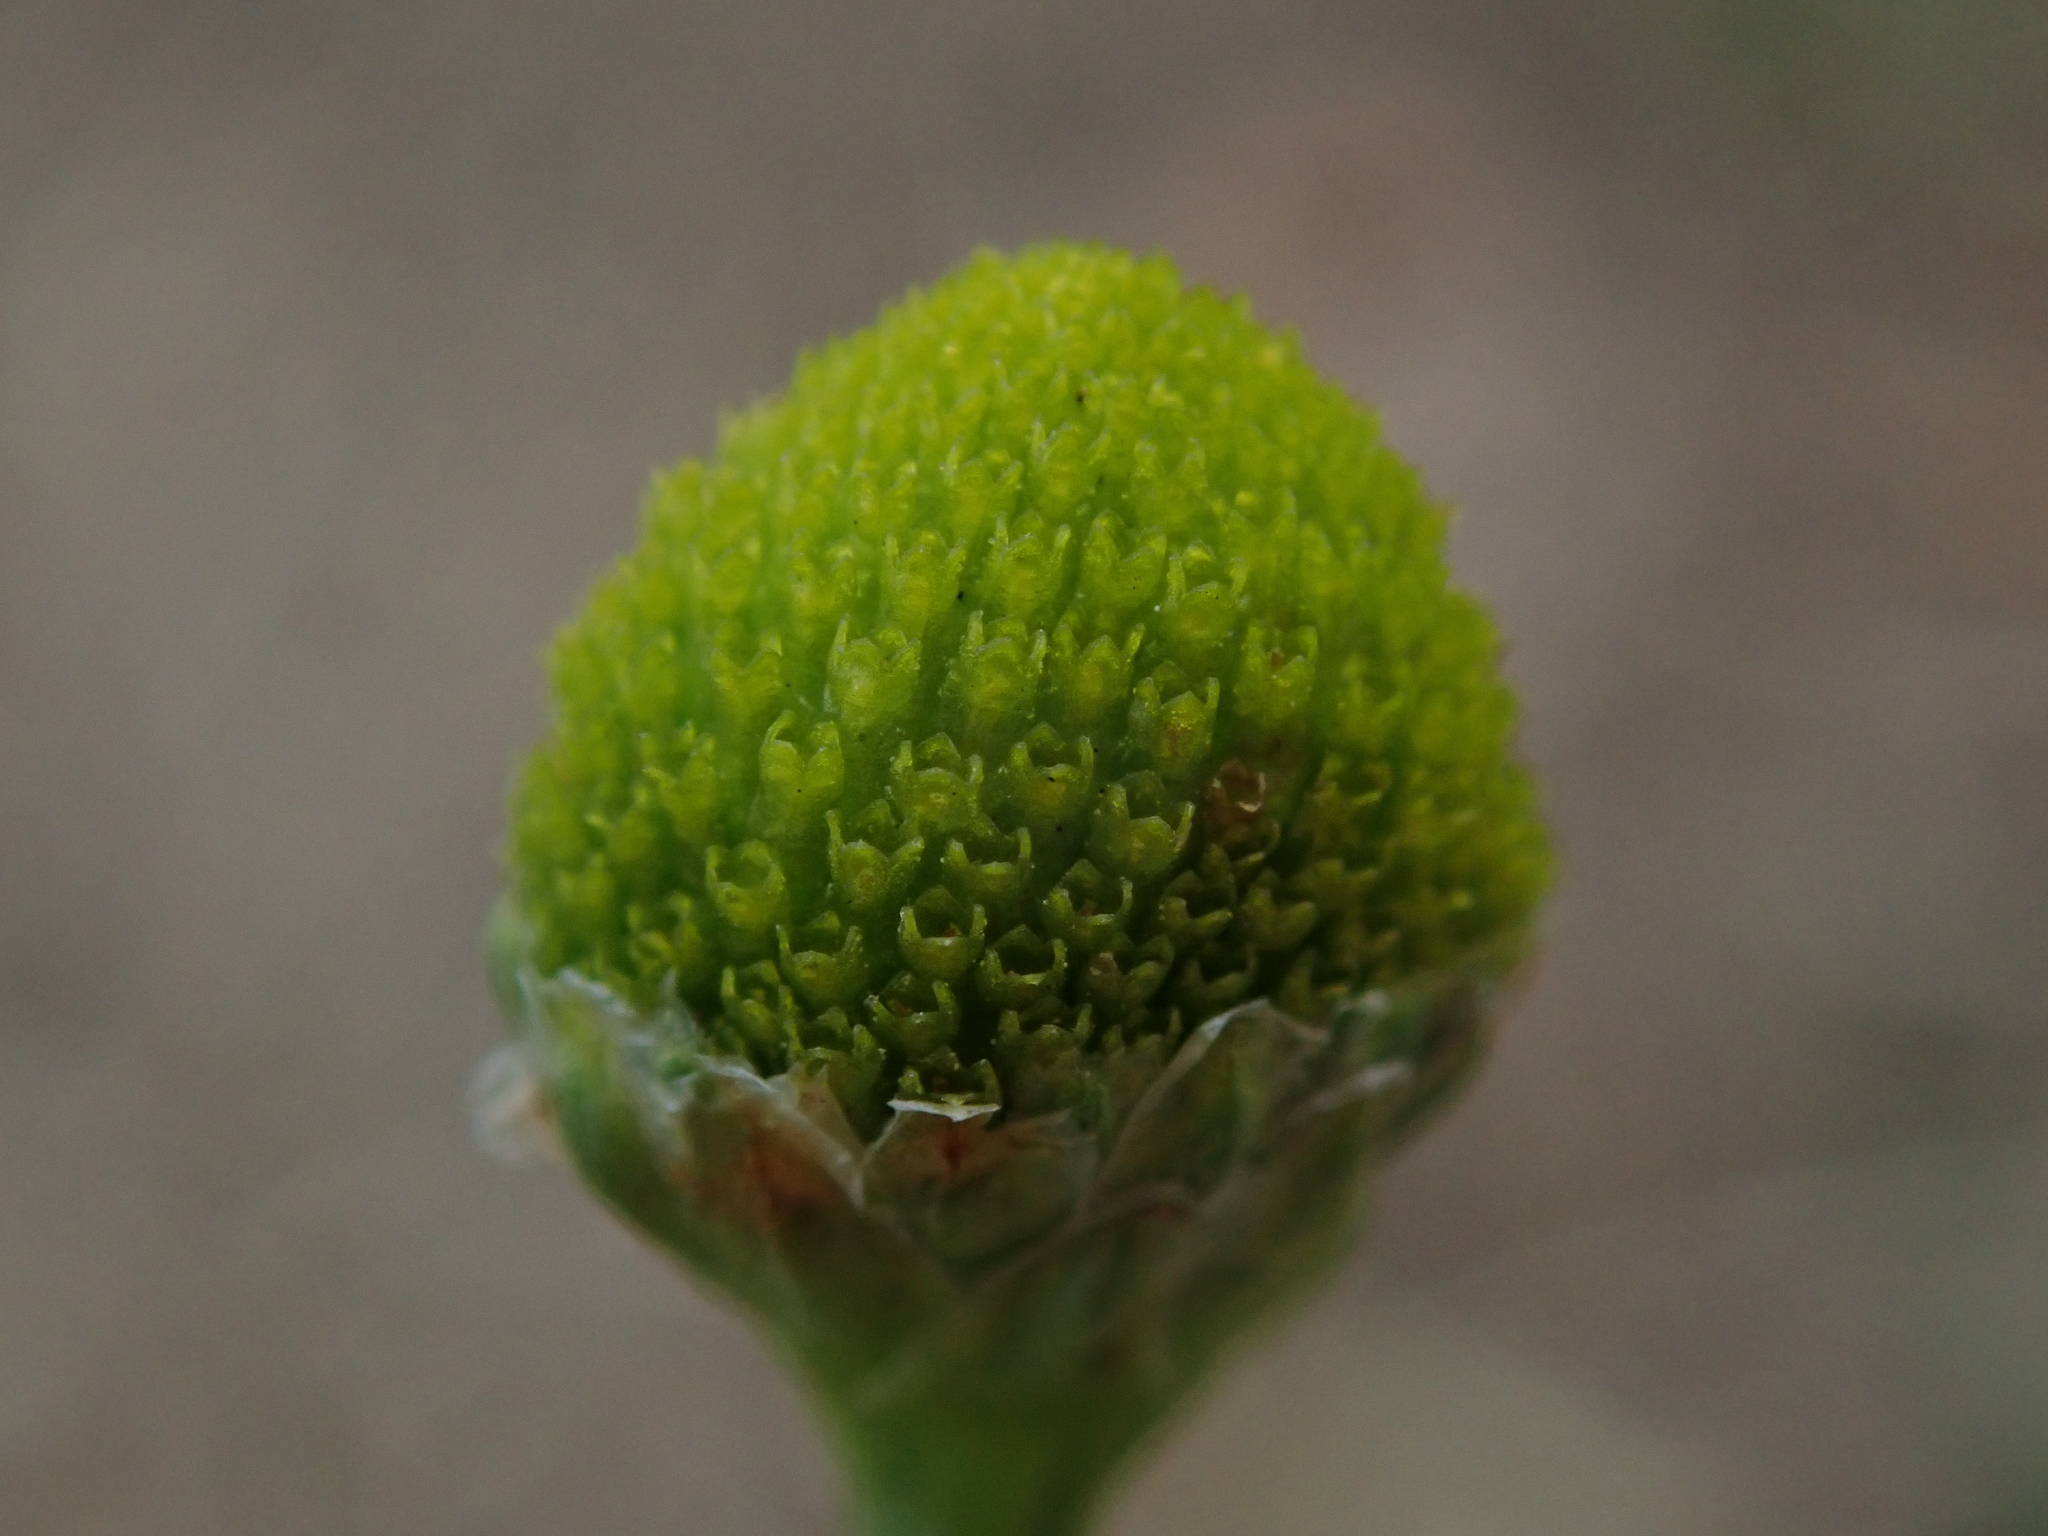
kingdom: Plantae
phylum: Tracheophyta
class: Magnoliopsida
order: Asterales
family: Asteraceae
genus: Matricaria
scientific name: Matricaria discoidea
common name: Disc mayweed
